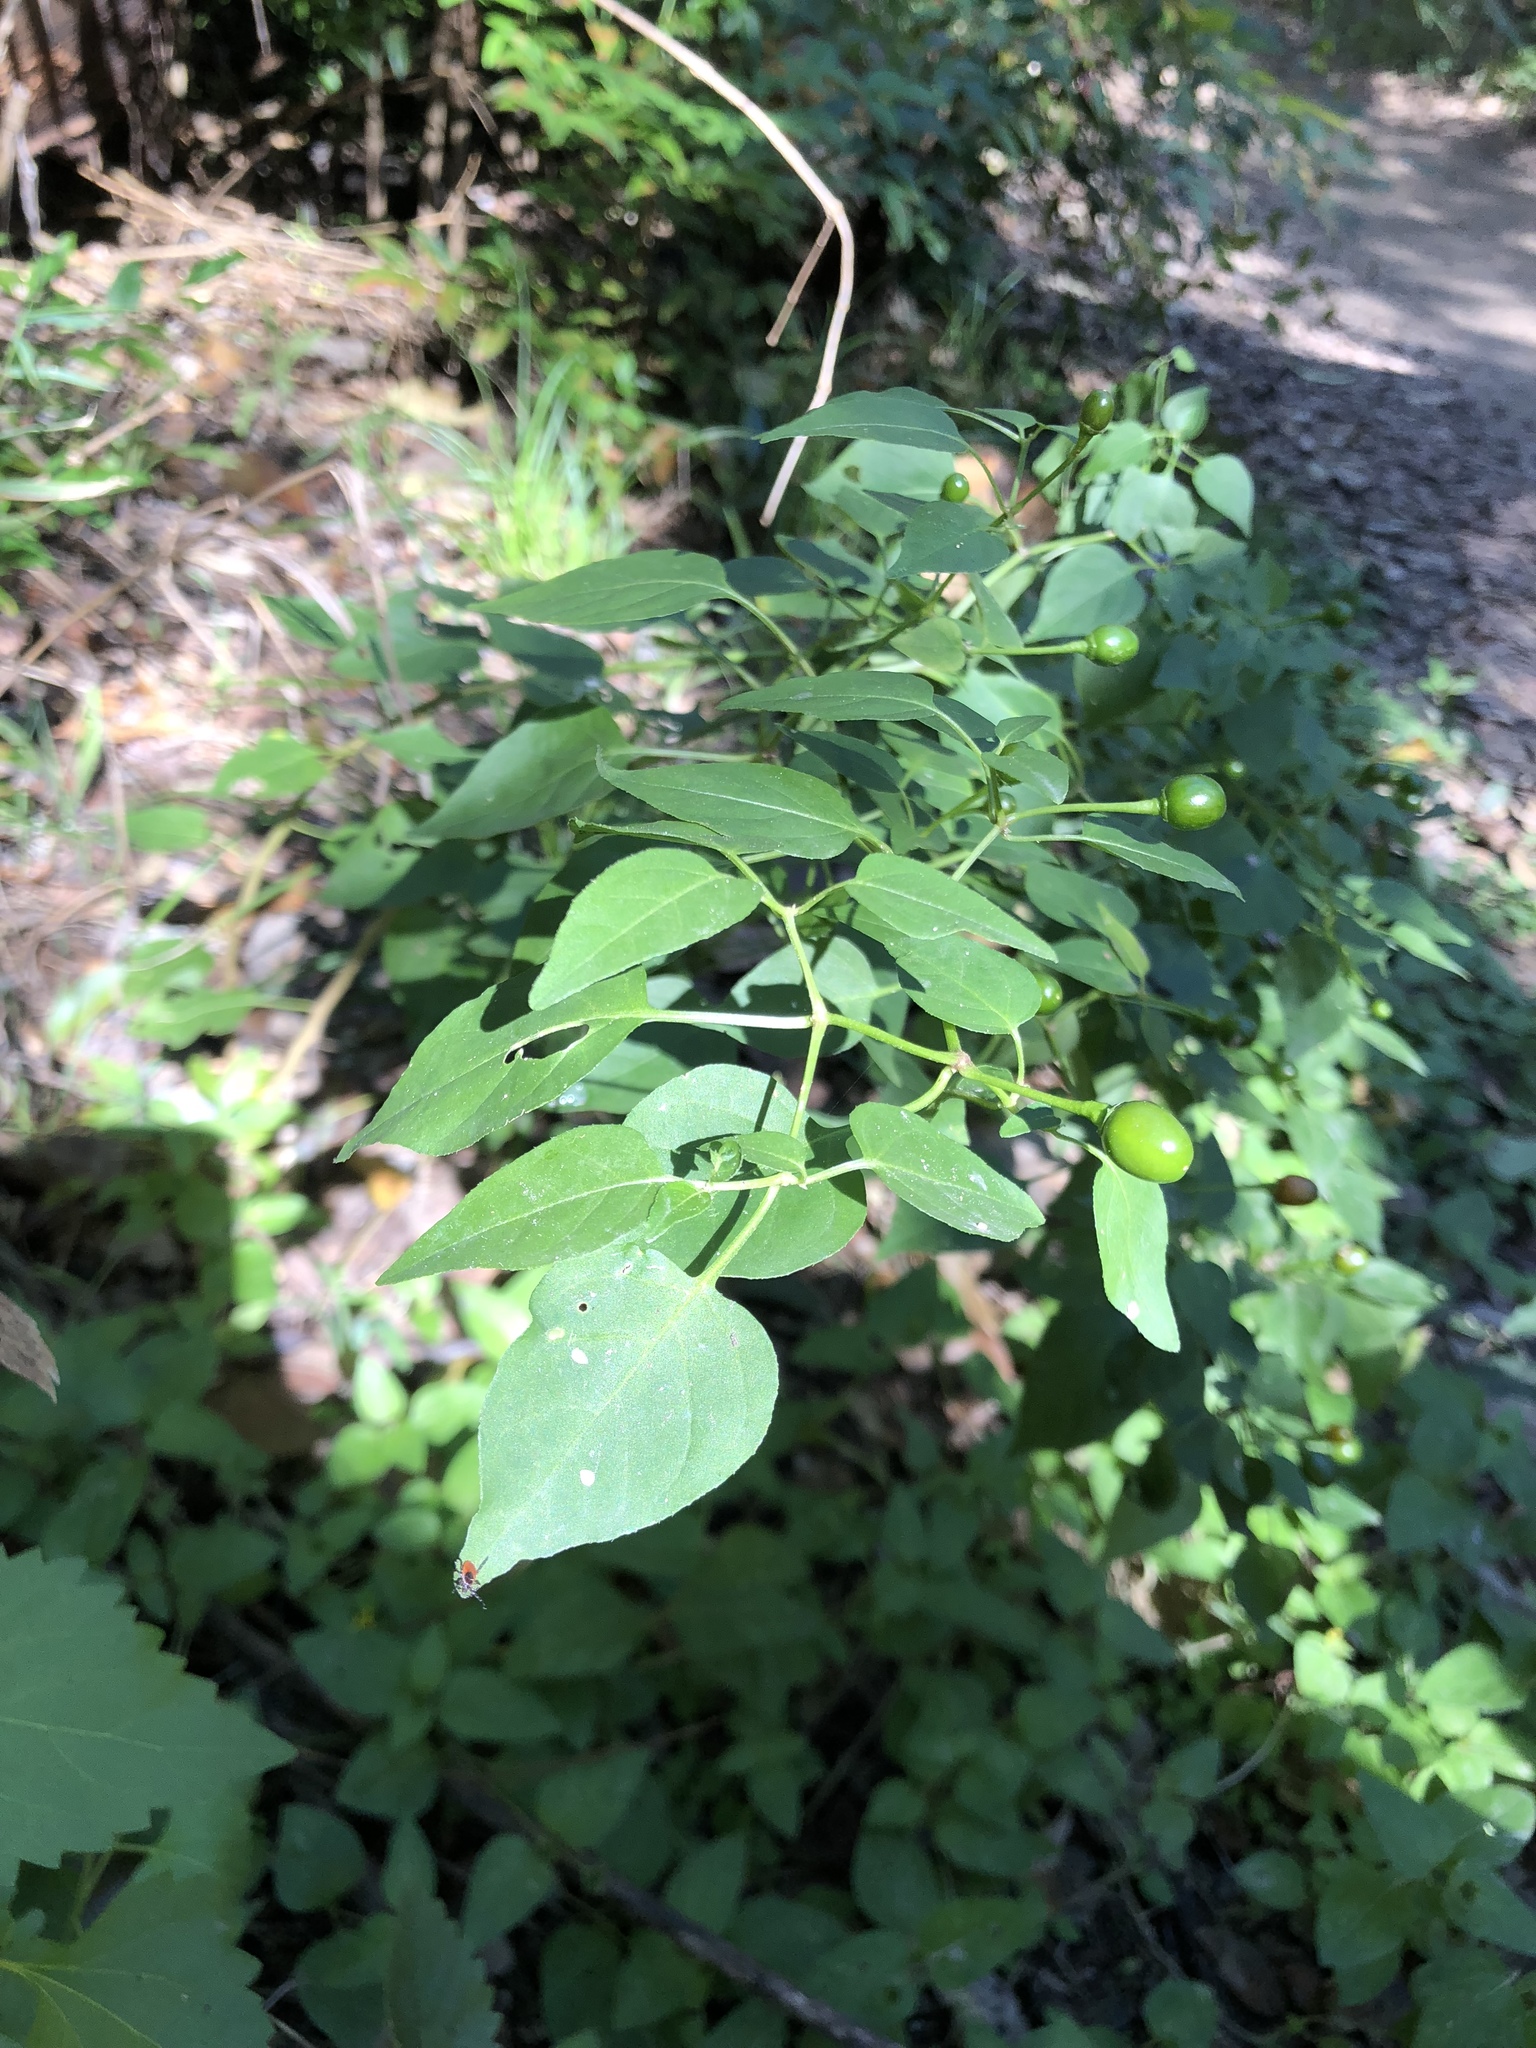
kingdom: Plantae
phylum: Tracheophyta
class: Magnoliopsida
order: Solanales
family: Solanaceae
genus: Capsicum
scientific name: Capsicum annuum
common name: Sweet pepper
